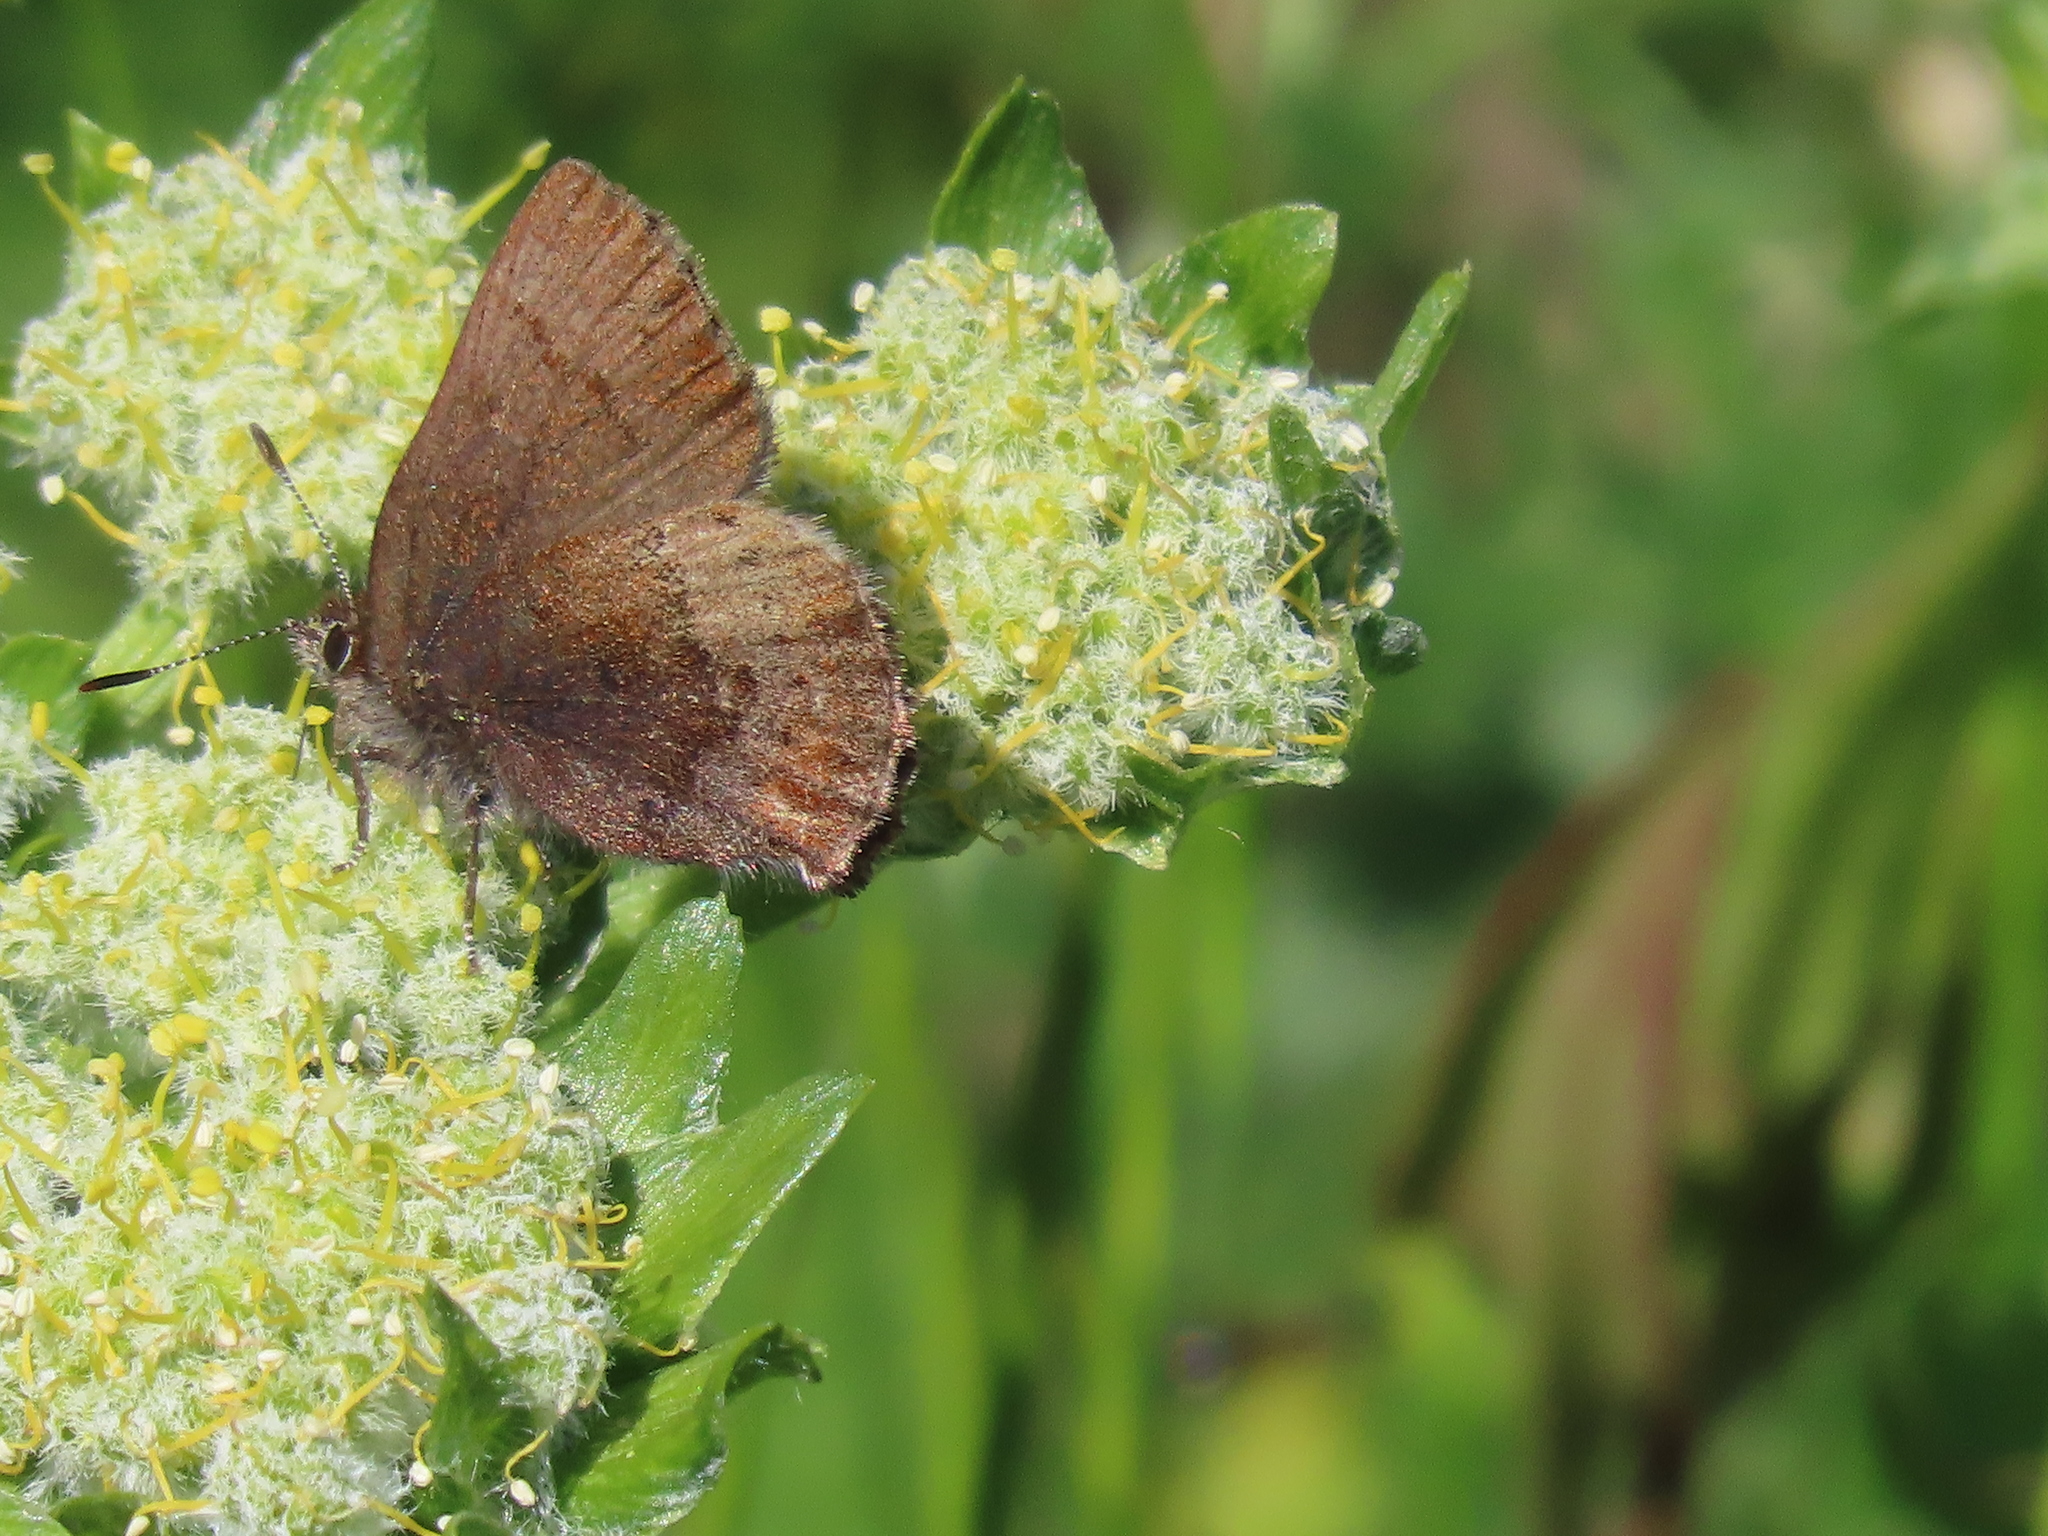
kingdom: Animalia
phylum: Arthropoda
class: Insecta
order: Lepidoptera
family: Lycaenidae
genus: Callophrys
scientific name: Callophrys mossii
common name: Moss' elfin
